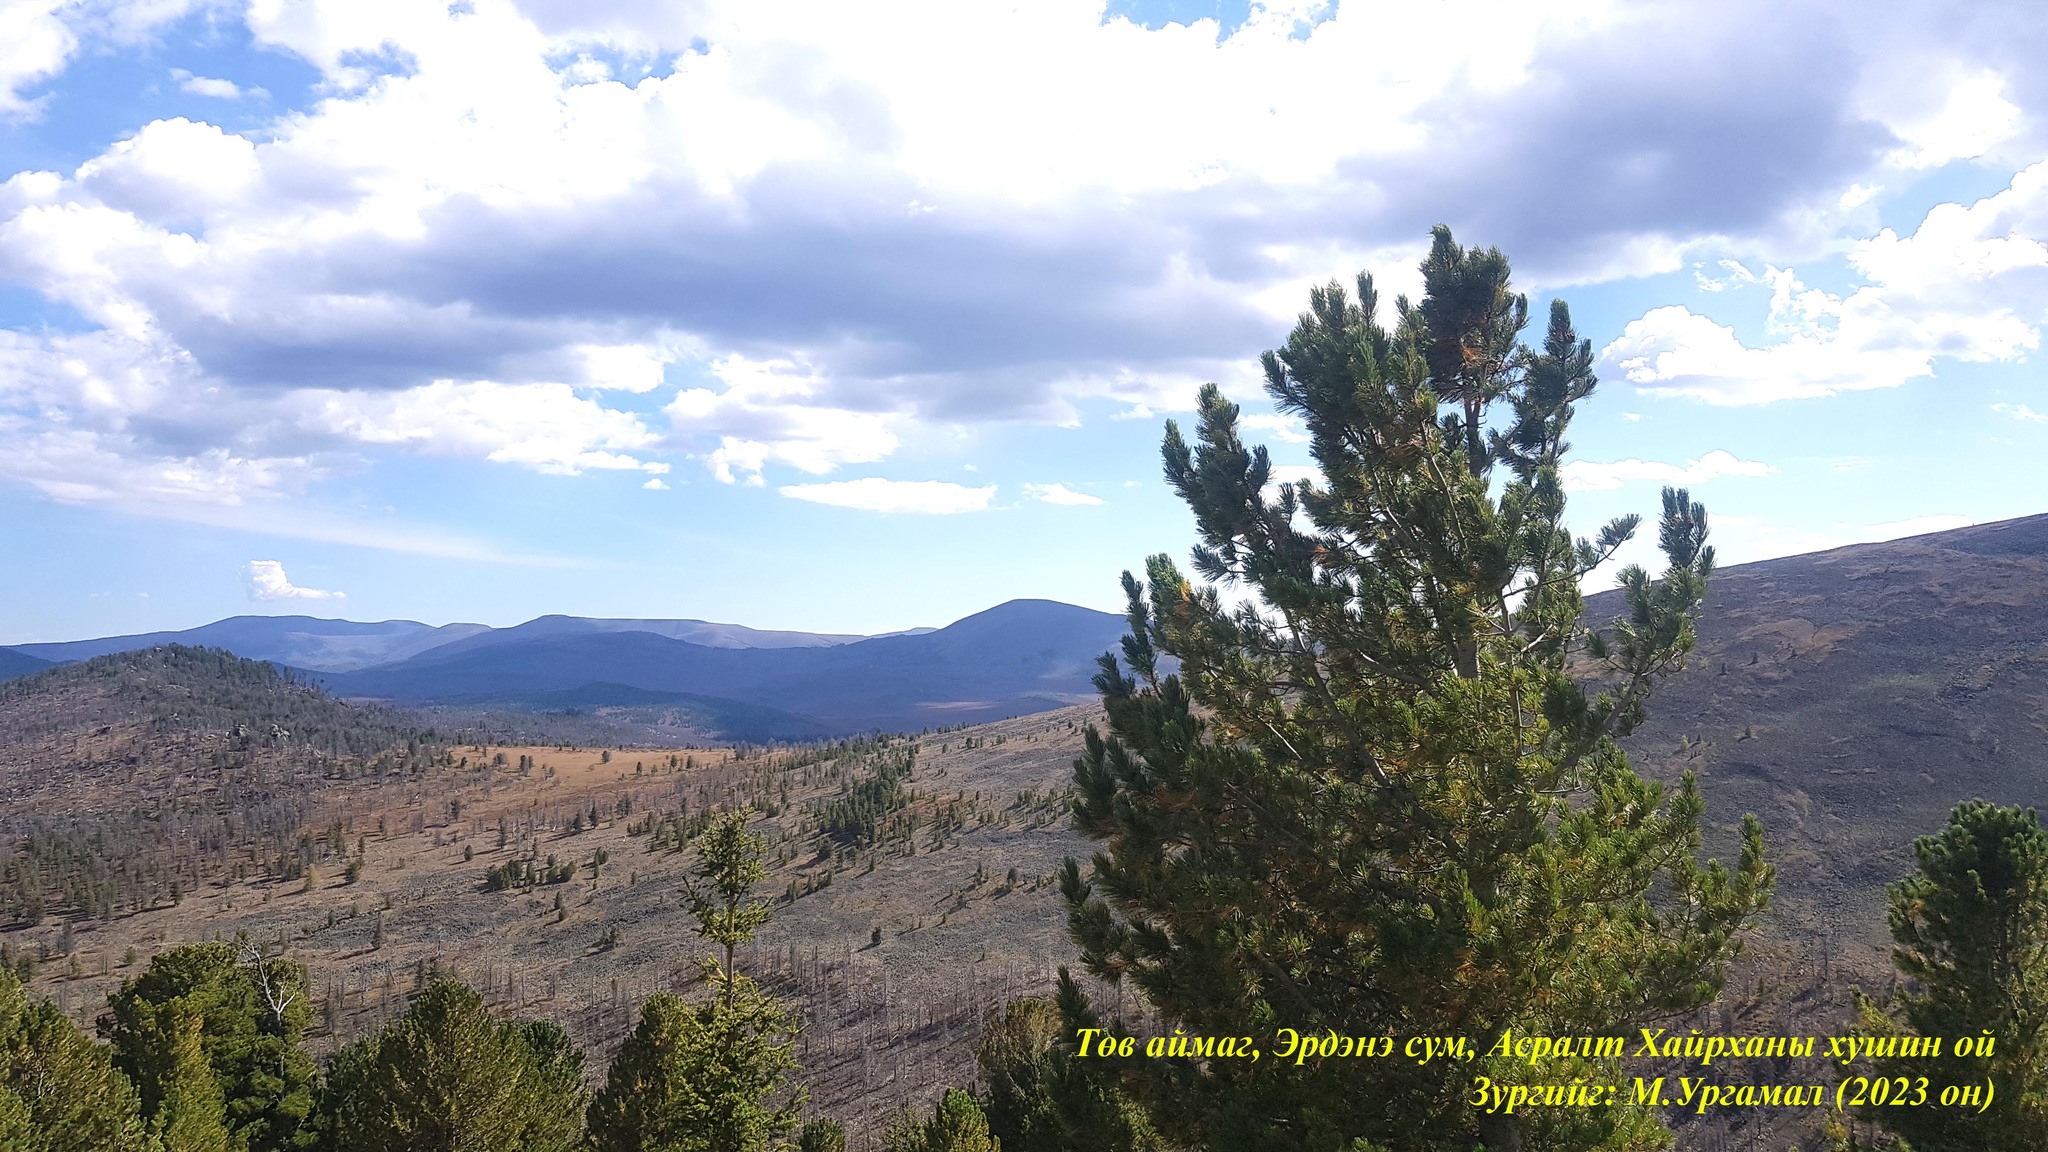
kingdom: Plantae
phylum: Tracheophyta
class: Pinopsida
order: Pinales
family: Pinaceae
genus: Pinus
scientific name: Pinus sibirica
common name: Siberian pine
